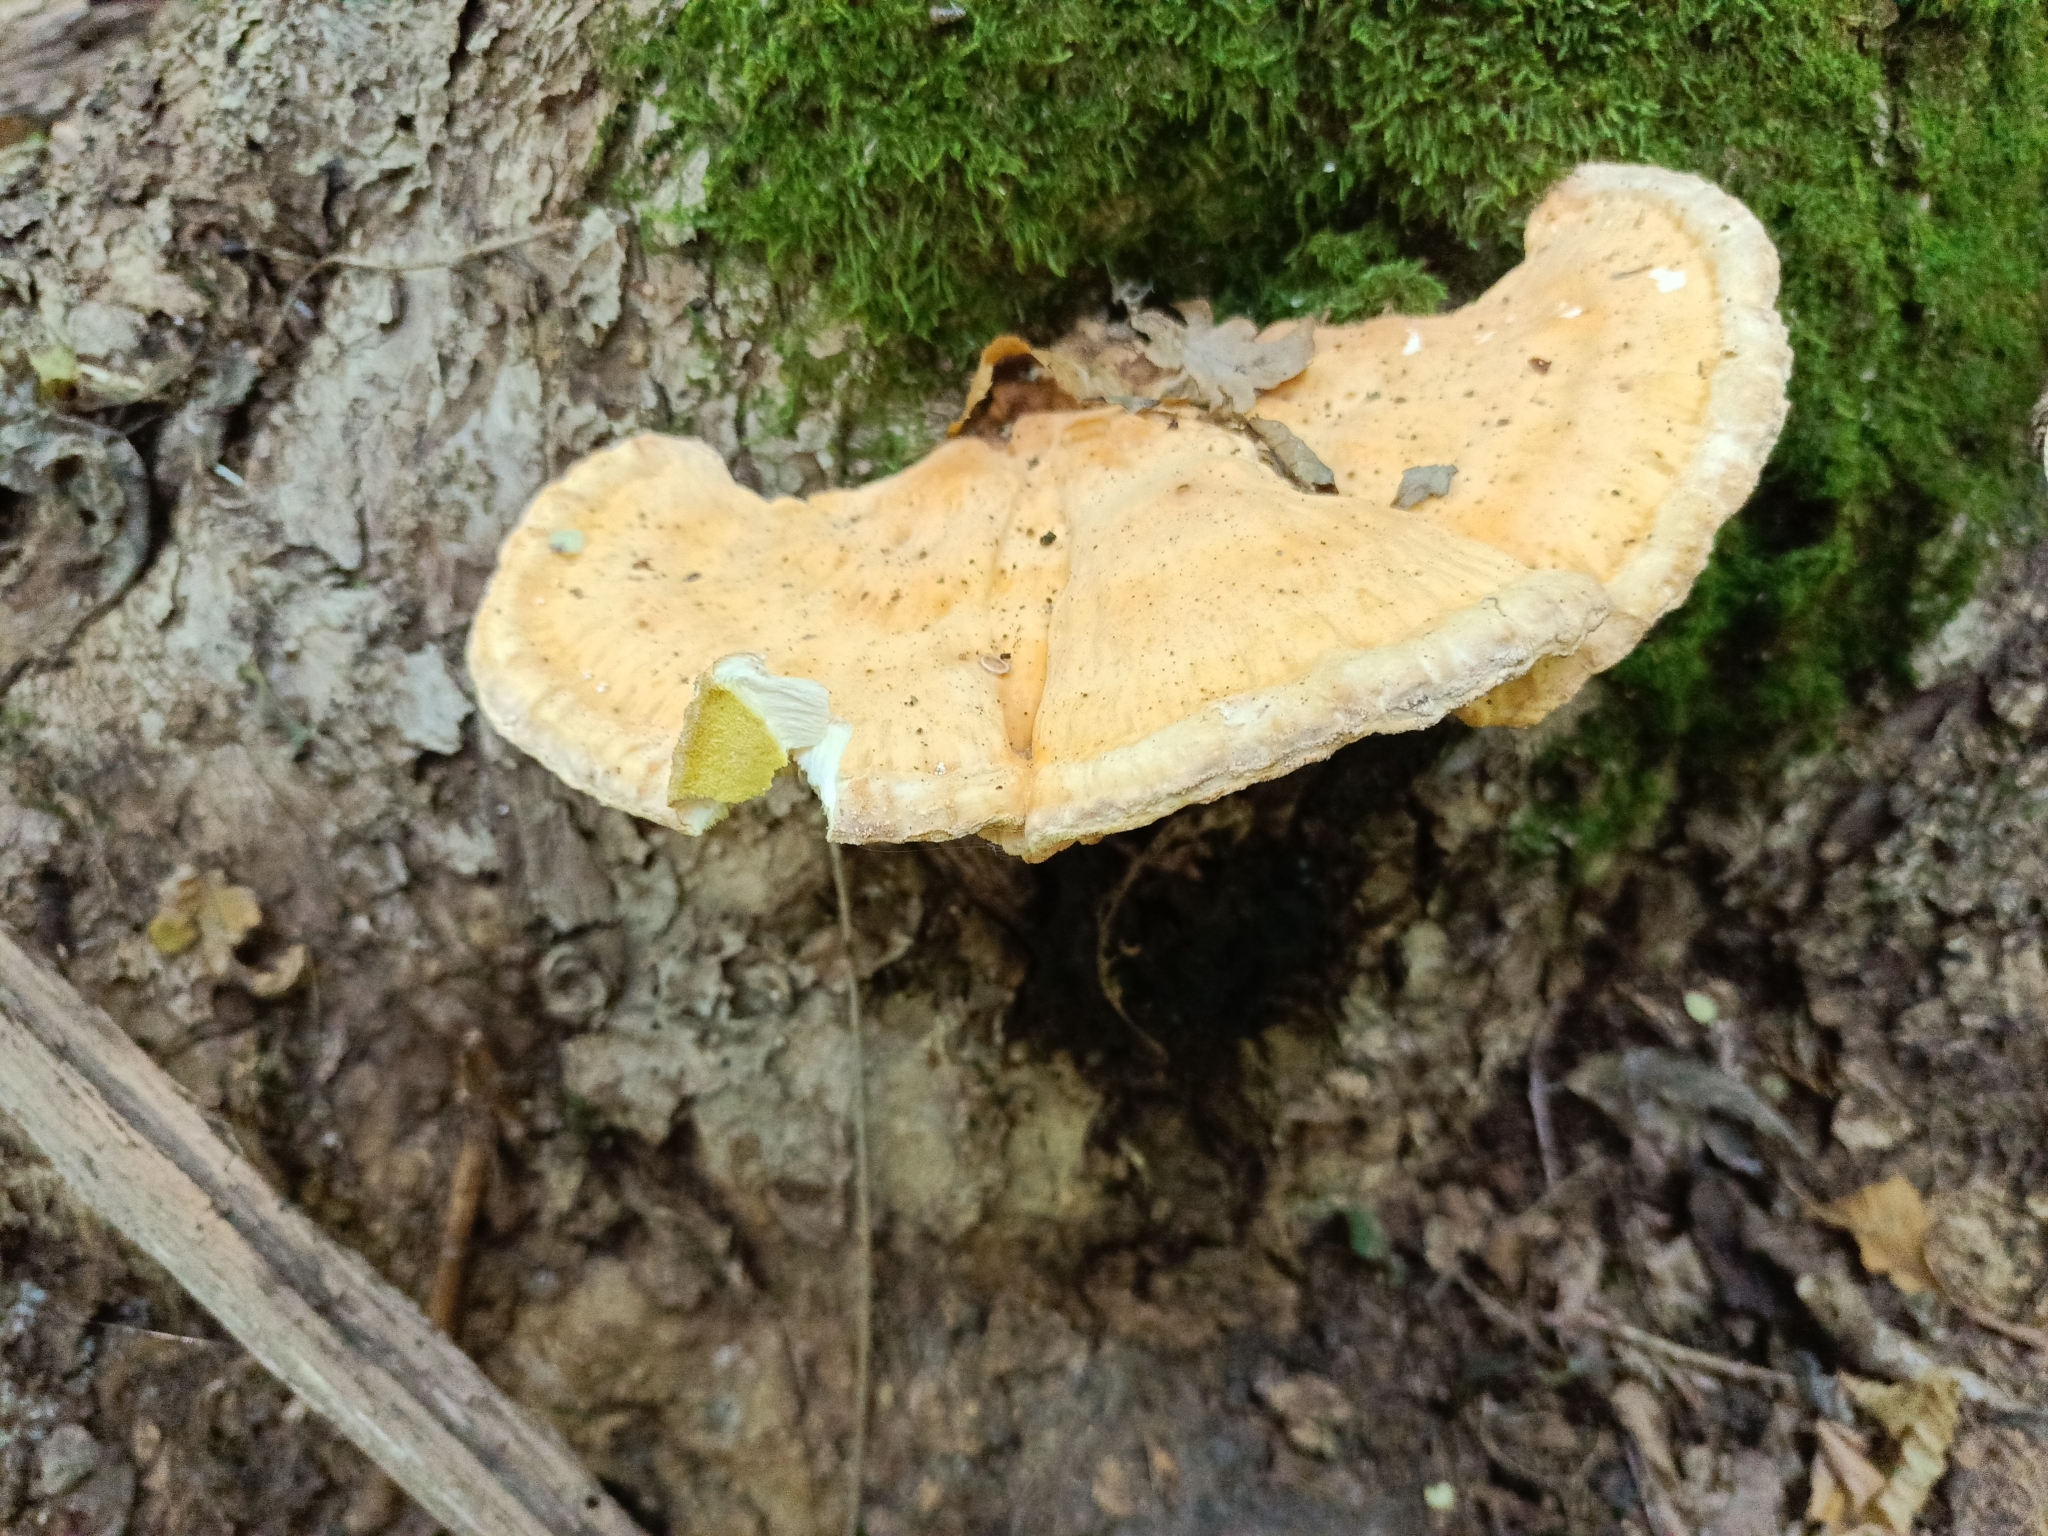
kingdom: Fungi
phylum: Basidiomycota
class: Agaricomycetes
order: Polyporales
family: Laetiporaceae
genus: Laetiporus
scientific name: Laetiporus sulphureus
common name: Chicken of the woods
